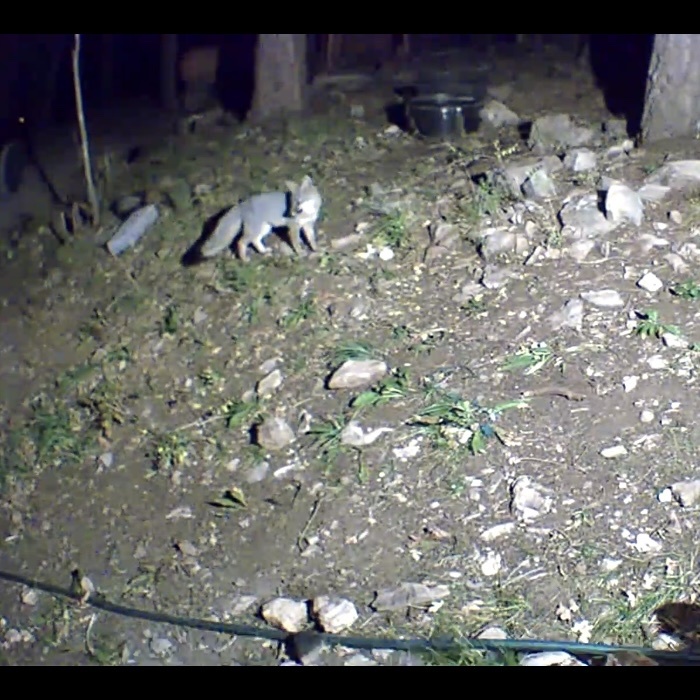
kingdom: Animalia
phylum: Chordata
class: Mammalia
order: Carnivora
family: Canidae
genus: Urocyon
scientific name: Urocyon cinereoargenteus
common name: Gray fox
